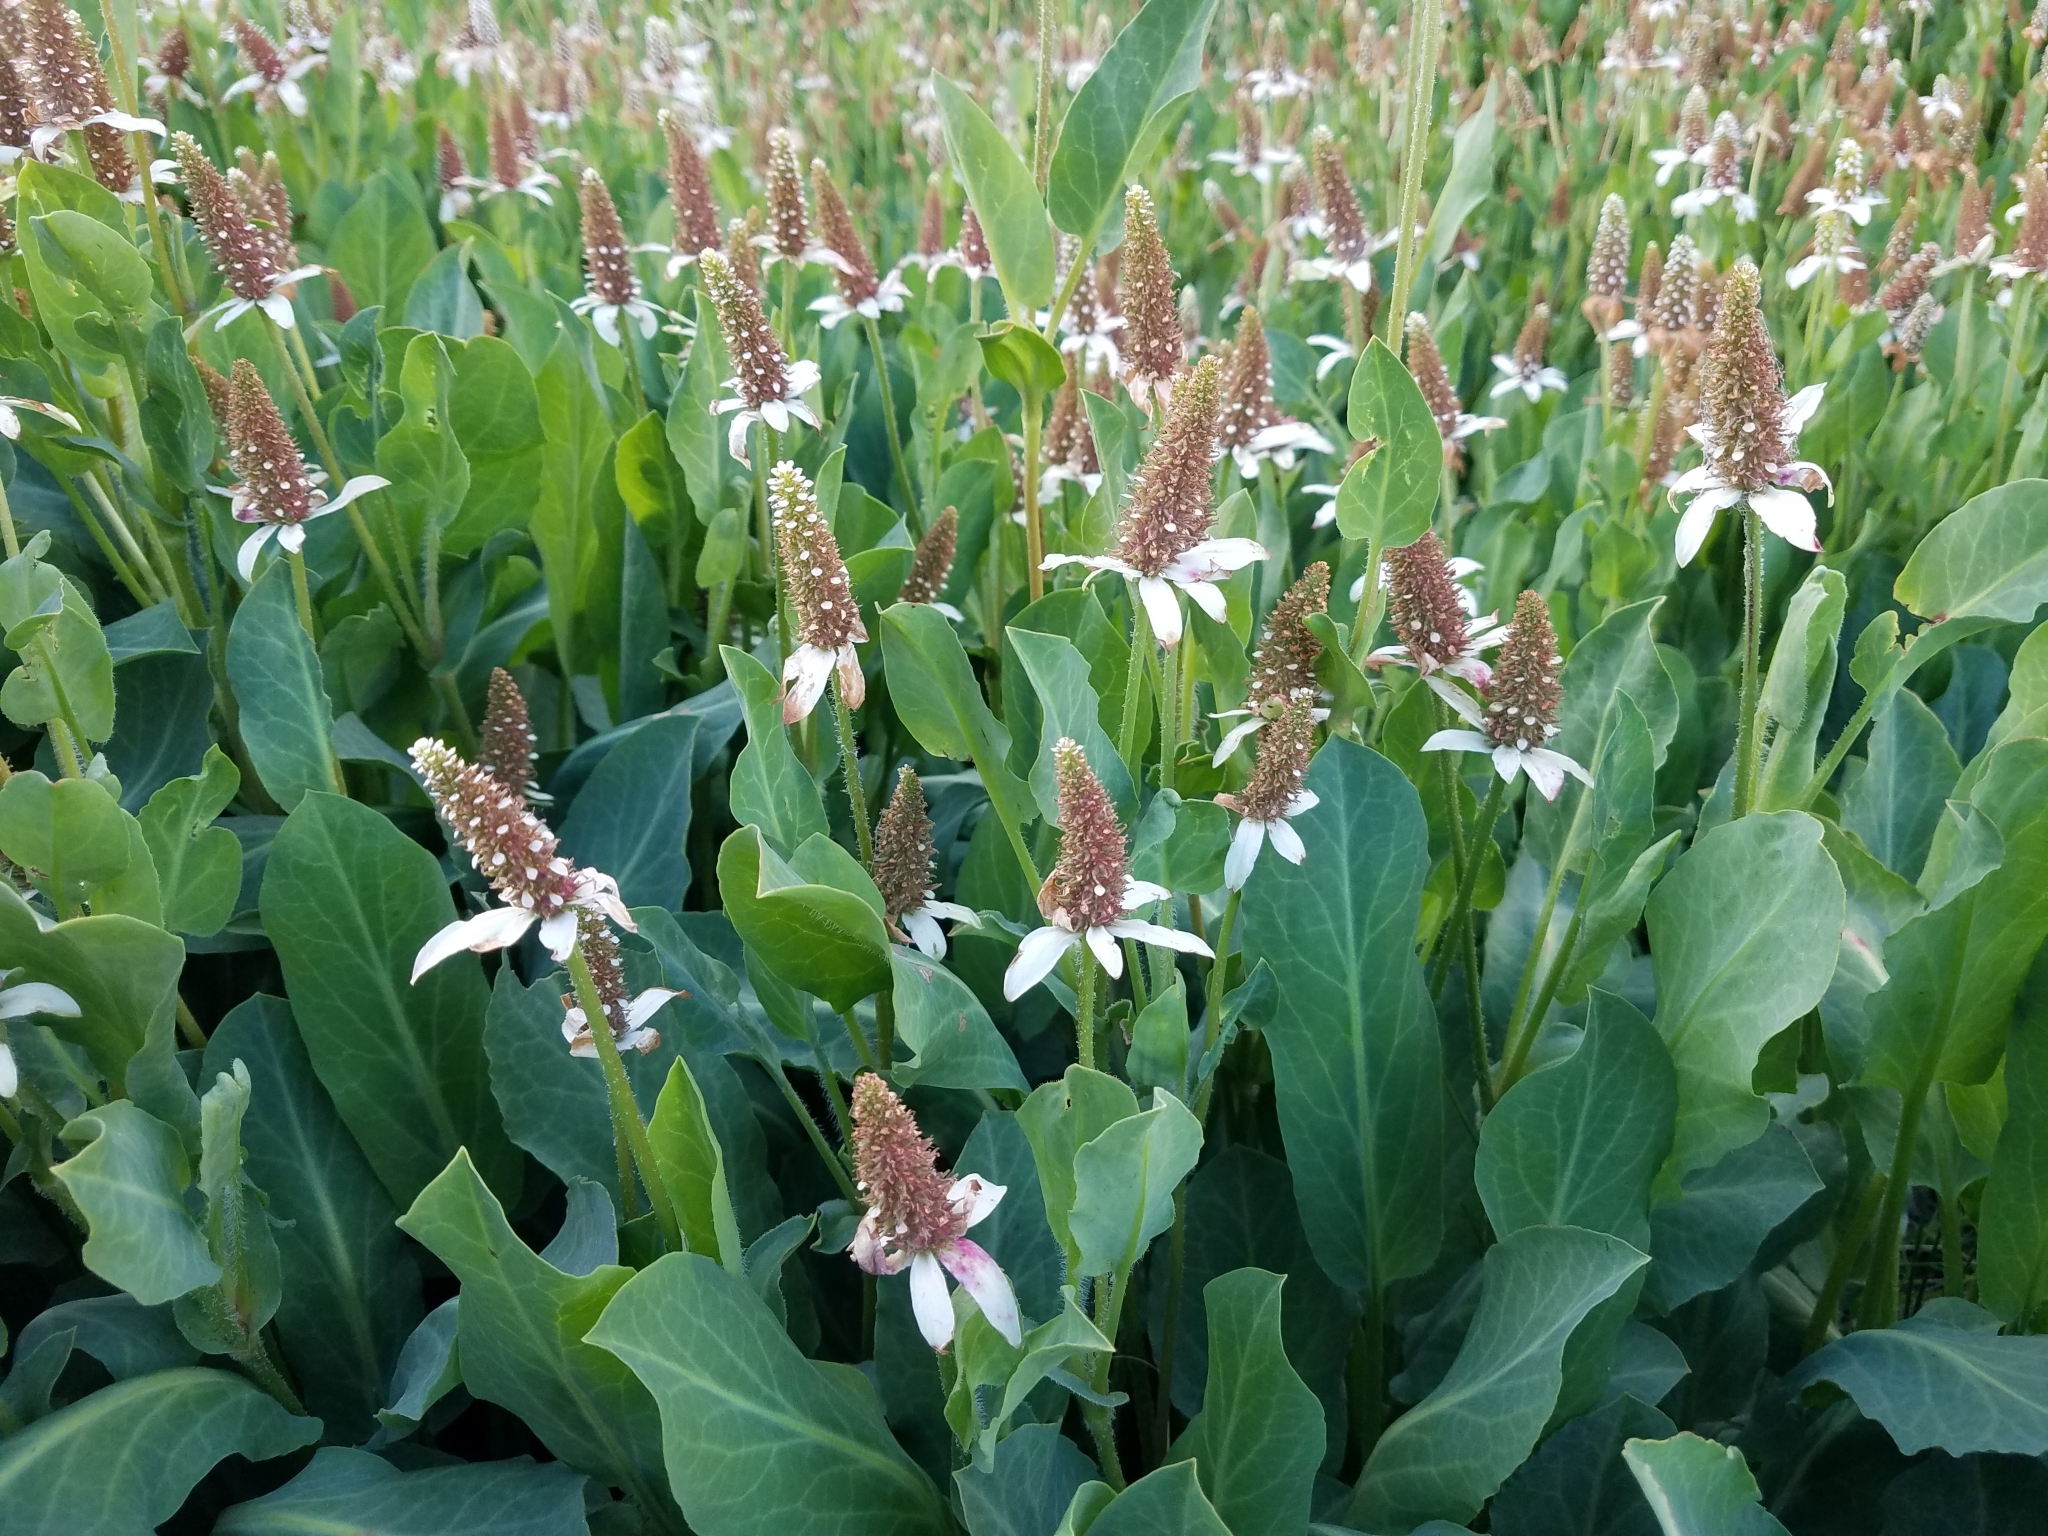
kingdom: Plantae
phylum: Tracheophyta
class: Magnoliopsida
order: Piperales
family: Saururaceae
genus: Anemopsis
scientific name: Anemopsis californica
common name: Apache-beads
